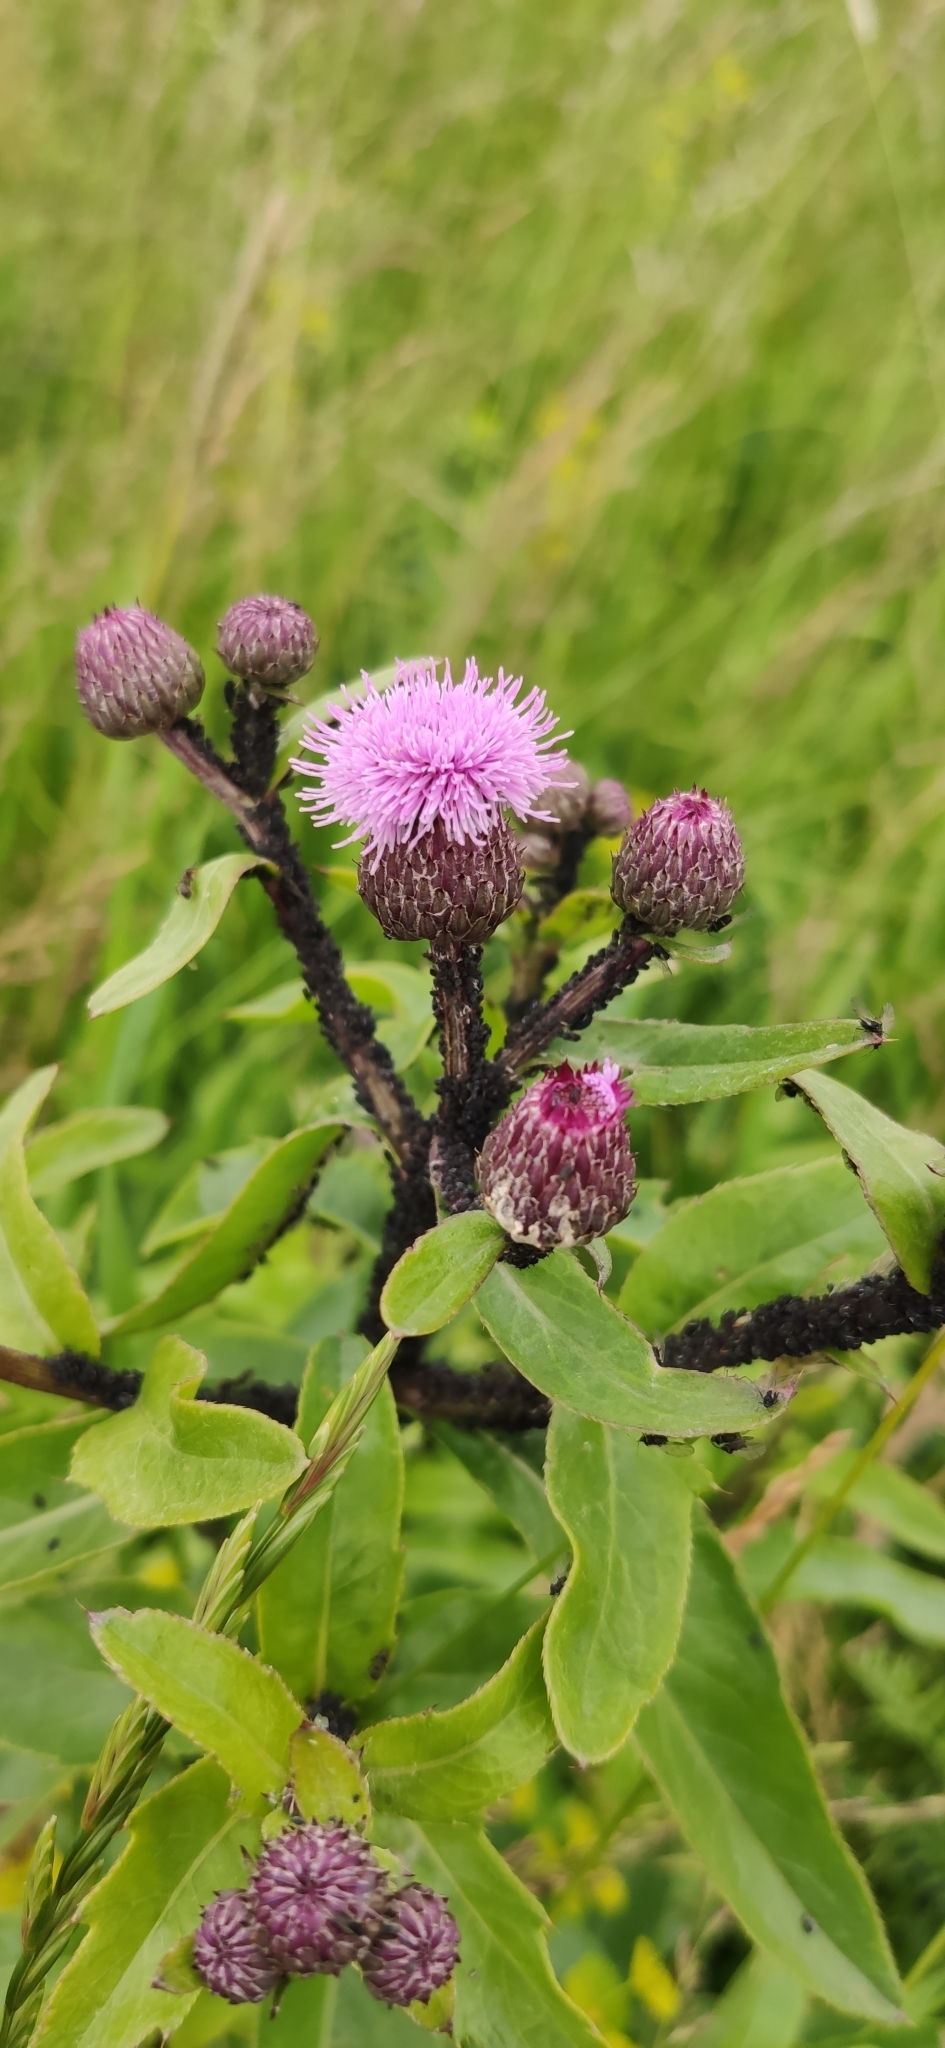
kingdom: Plantae
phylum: Tracheophyta
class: Magnoliopsida
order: Asterales
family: Asteraceae
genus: Cirsium
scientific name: Cirsium arvense
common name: Creeping thistle
